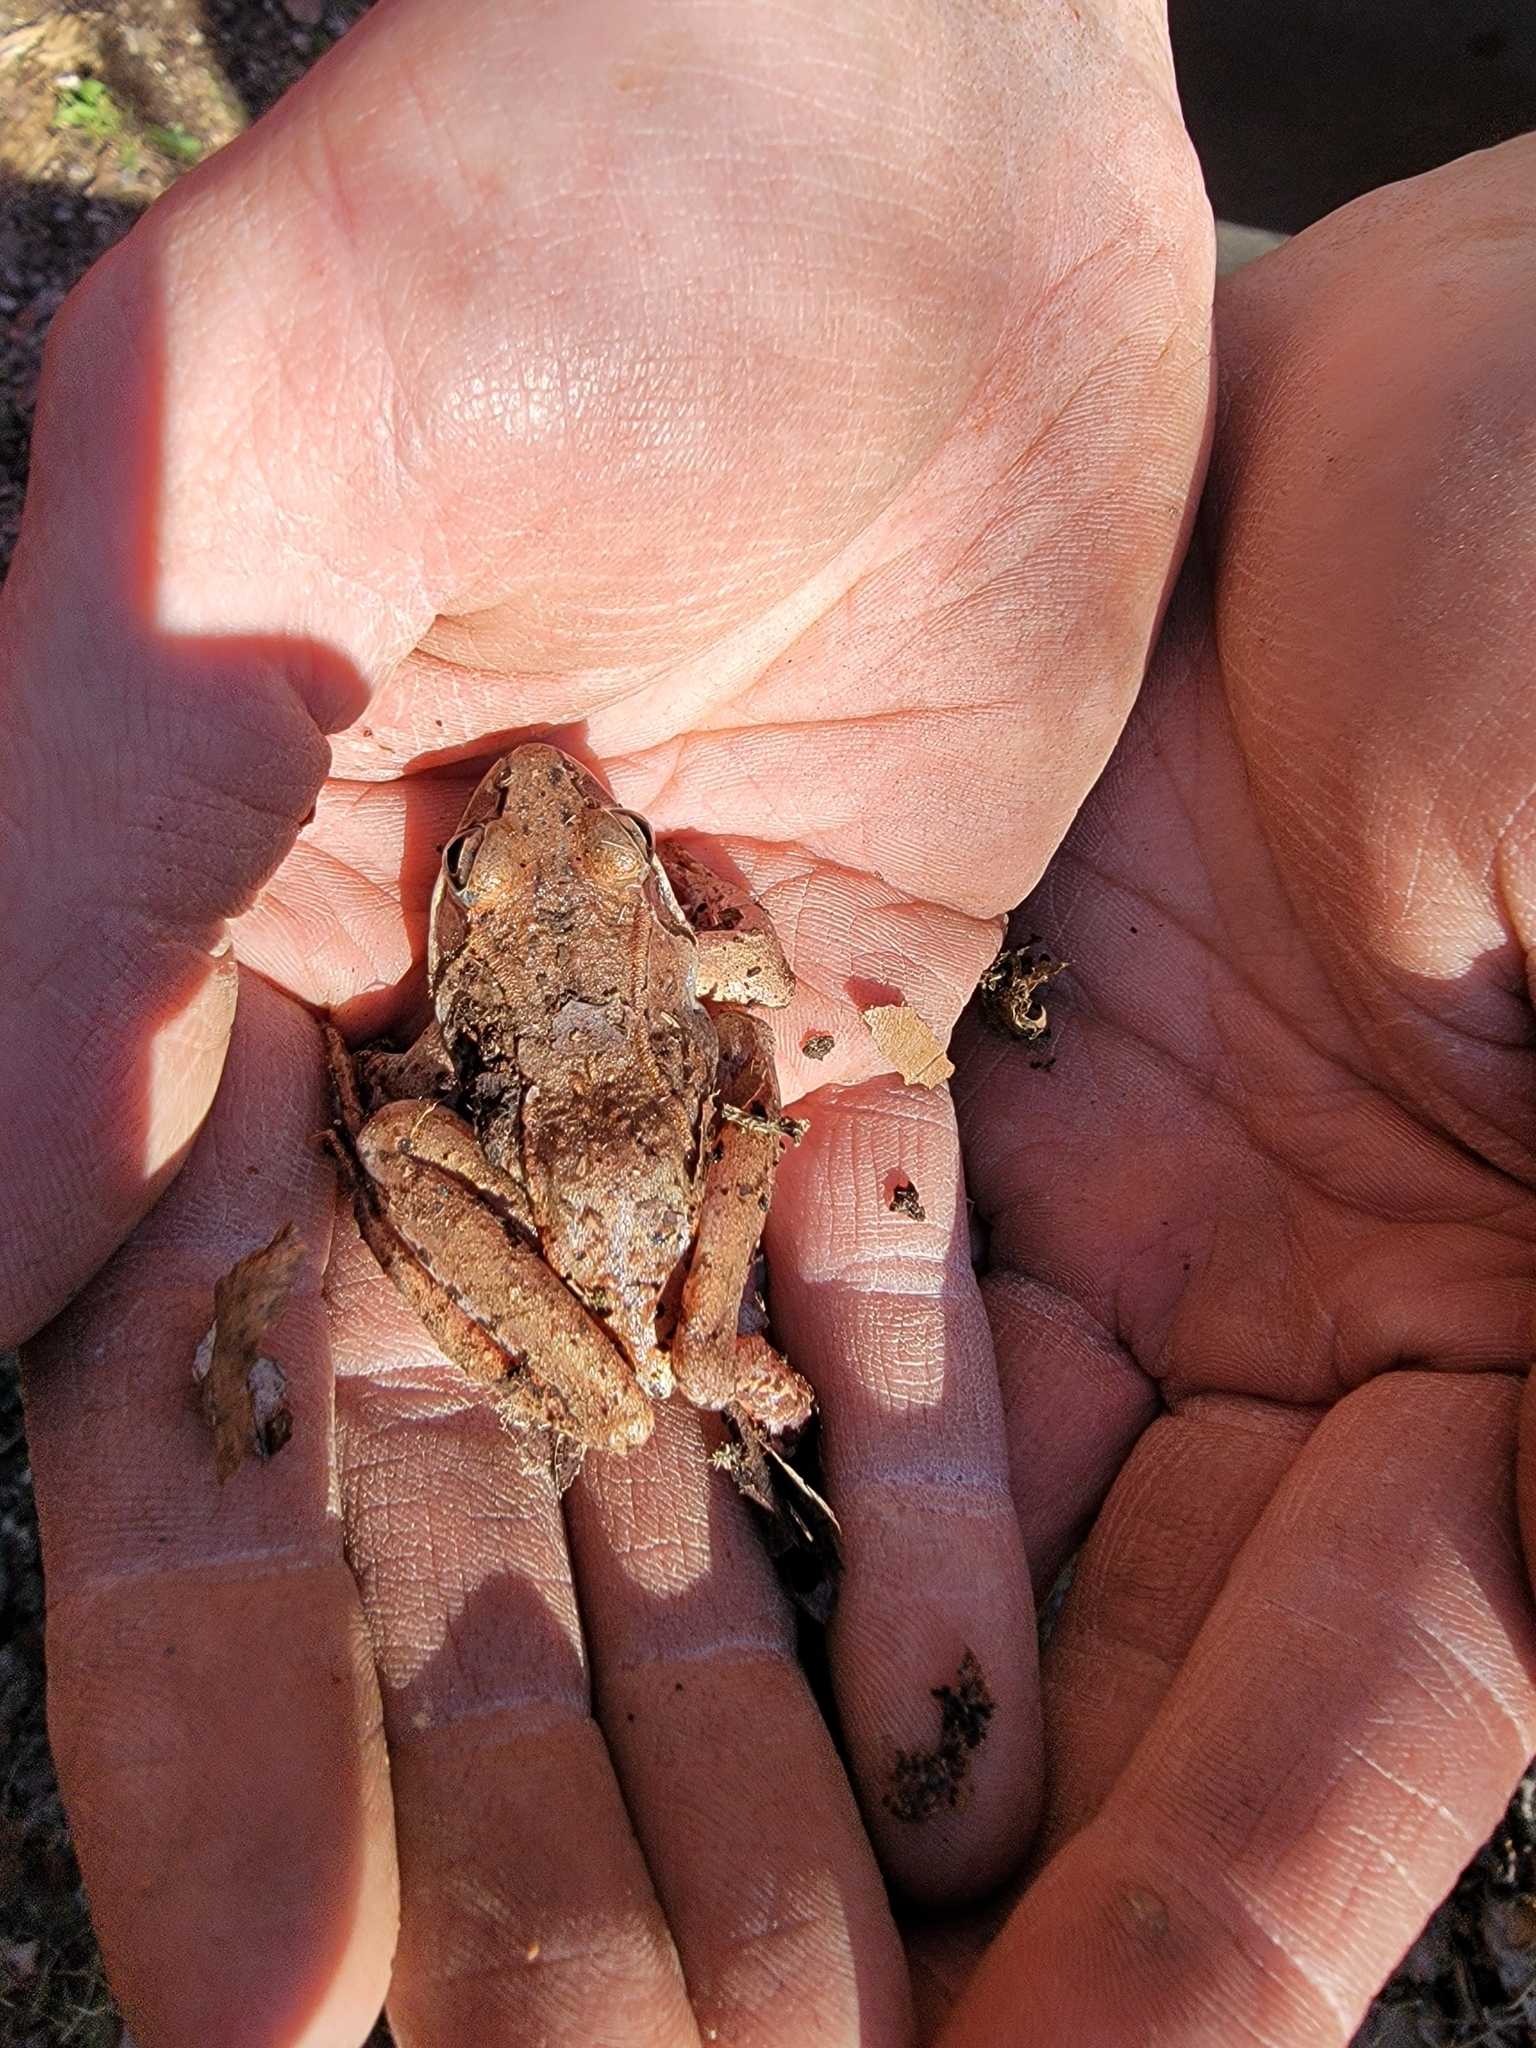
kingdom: Animalia
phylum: Chordata
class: Amphibia
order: Anura
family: Ranidae
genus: Lithobates
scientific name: Lithobates sylvaticus
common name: Wood frog
